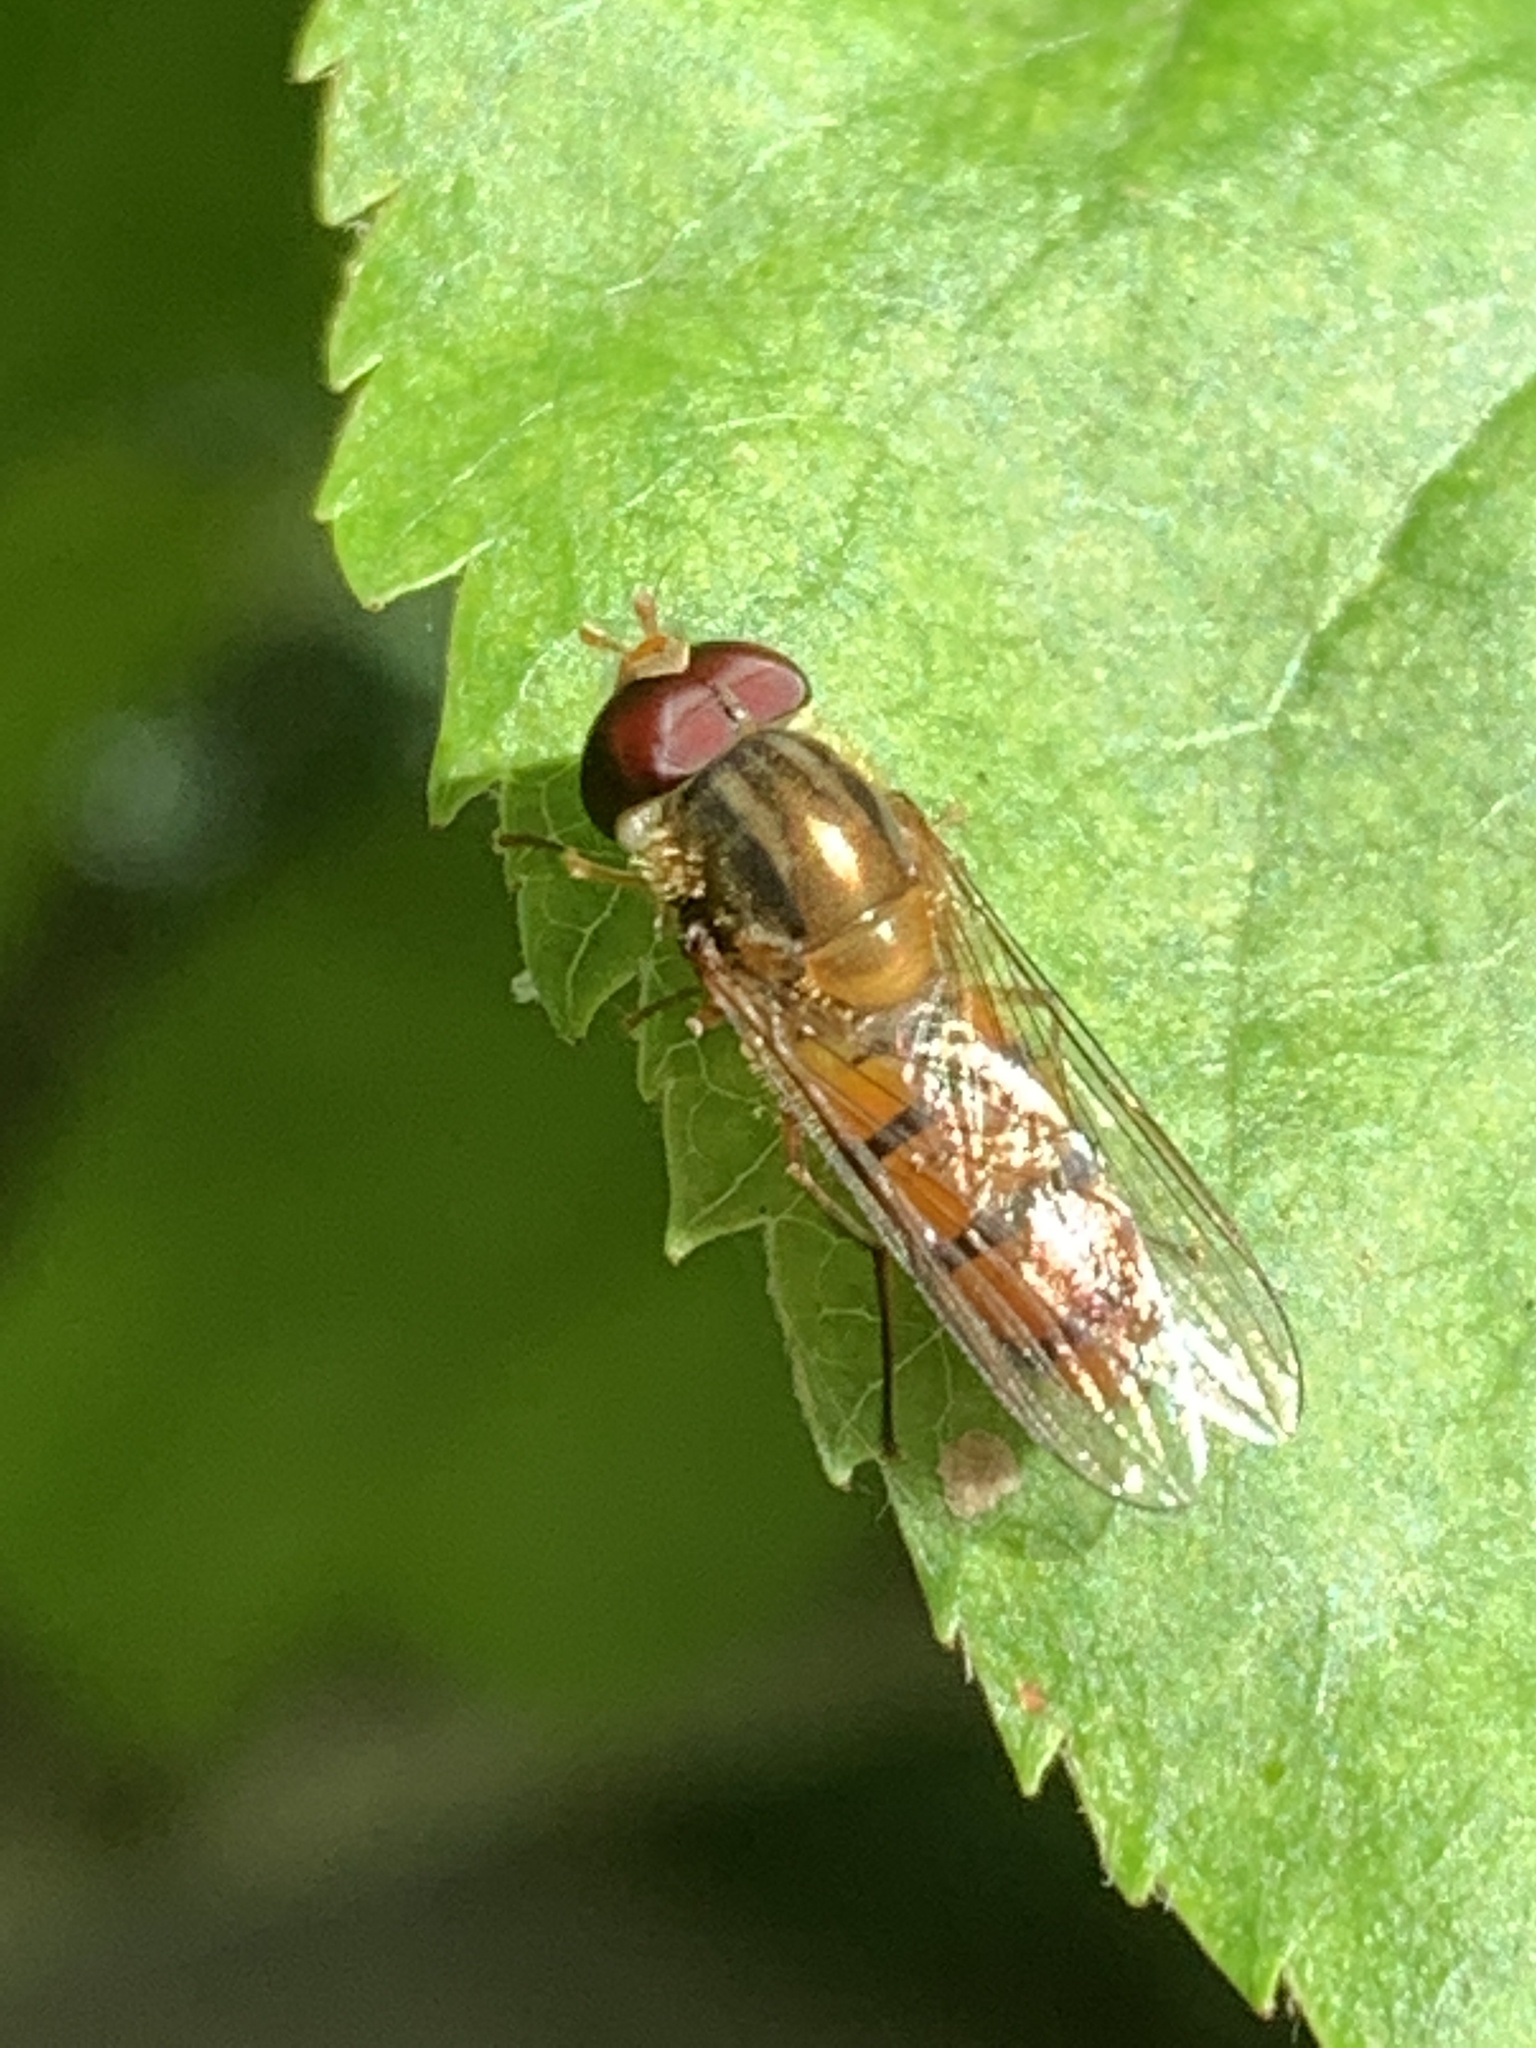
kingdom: Animalia
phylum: Arthropoda
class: Insecta
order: Diptera
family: Syrphidae
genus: Episyrphus
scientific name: Episyrphus balteatus
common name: Marmalade hoverfly
